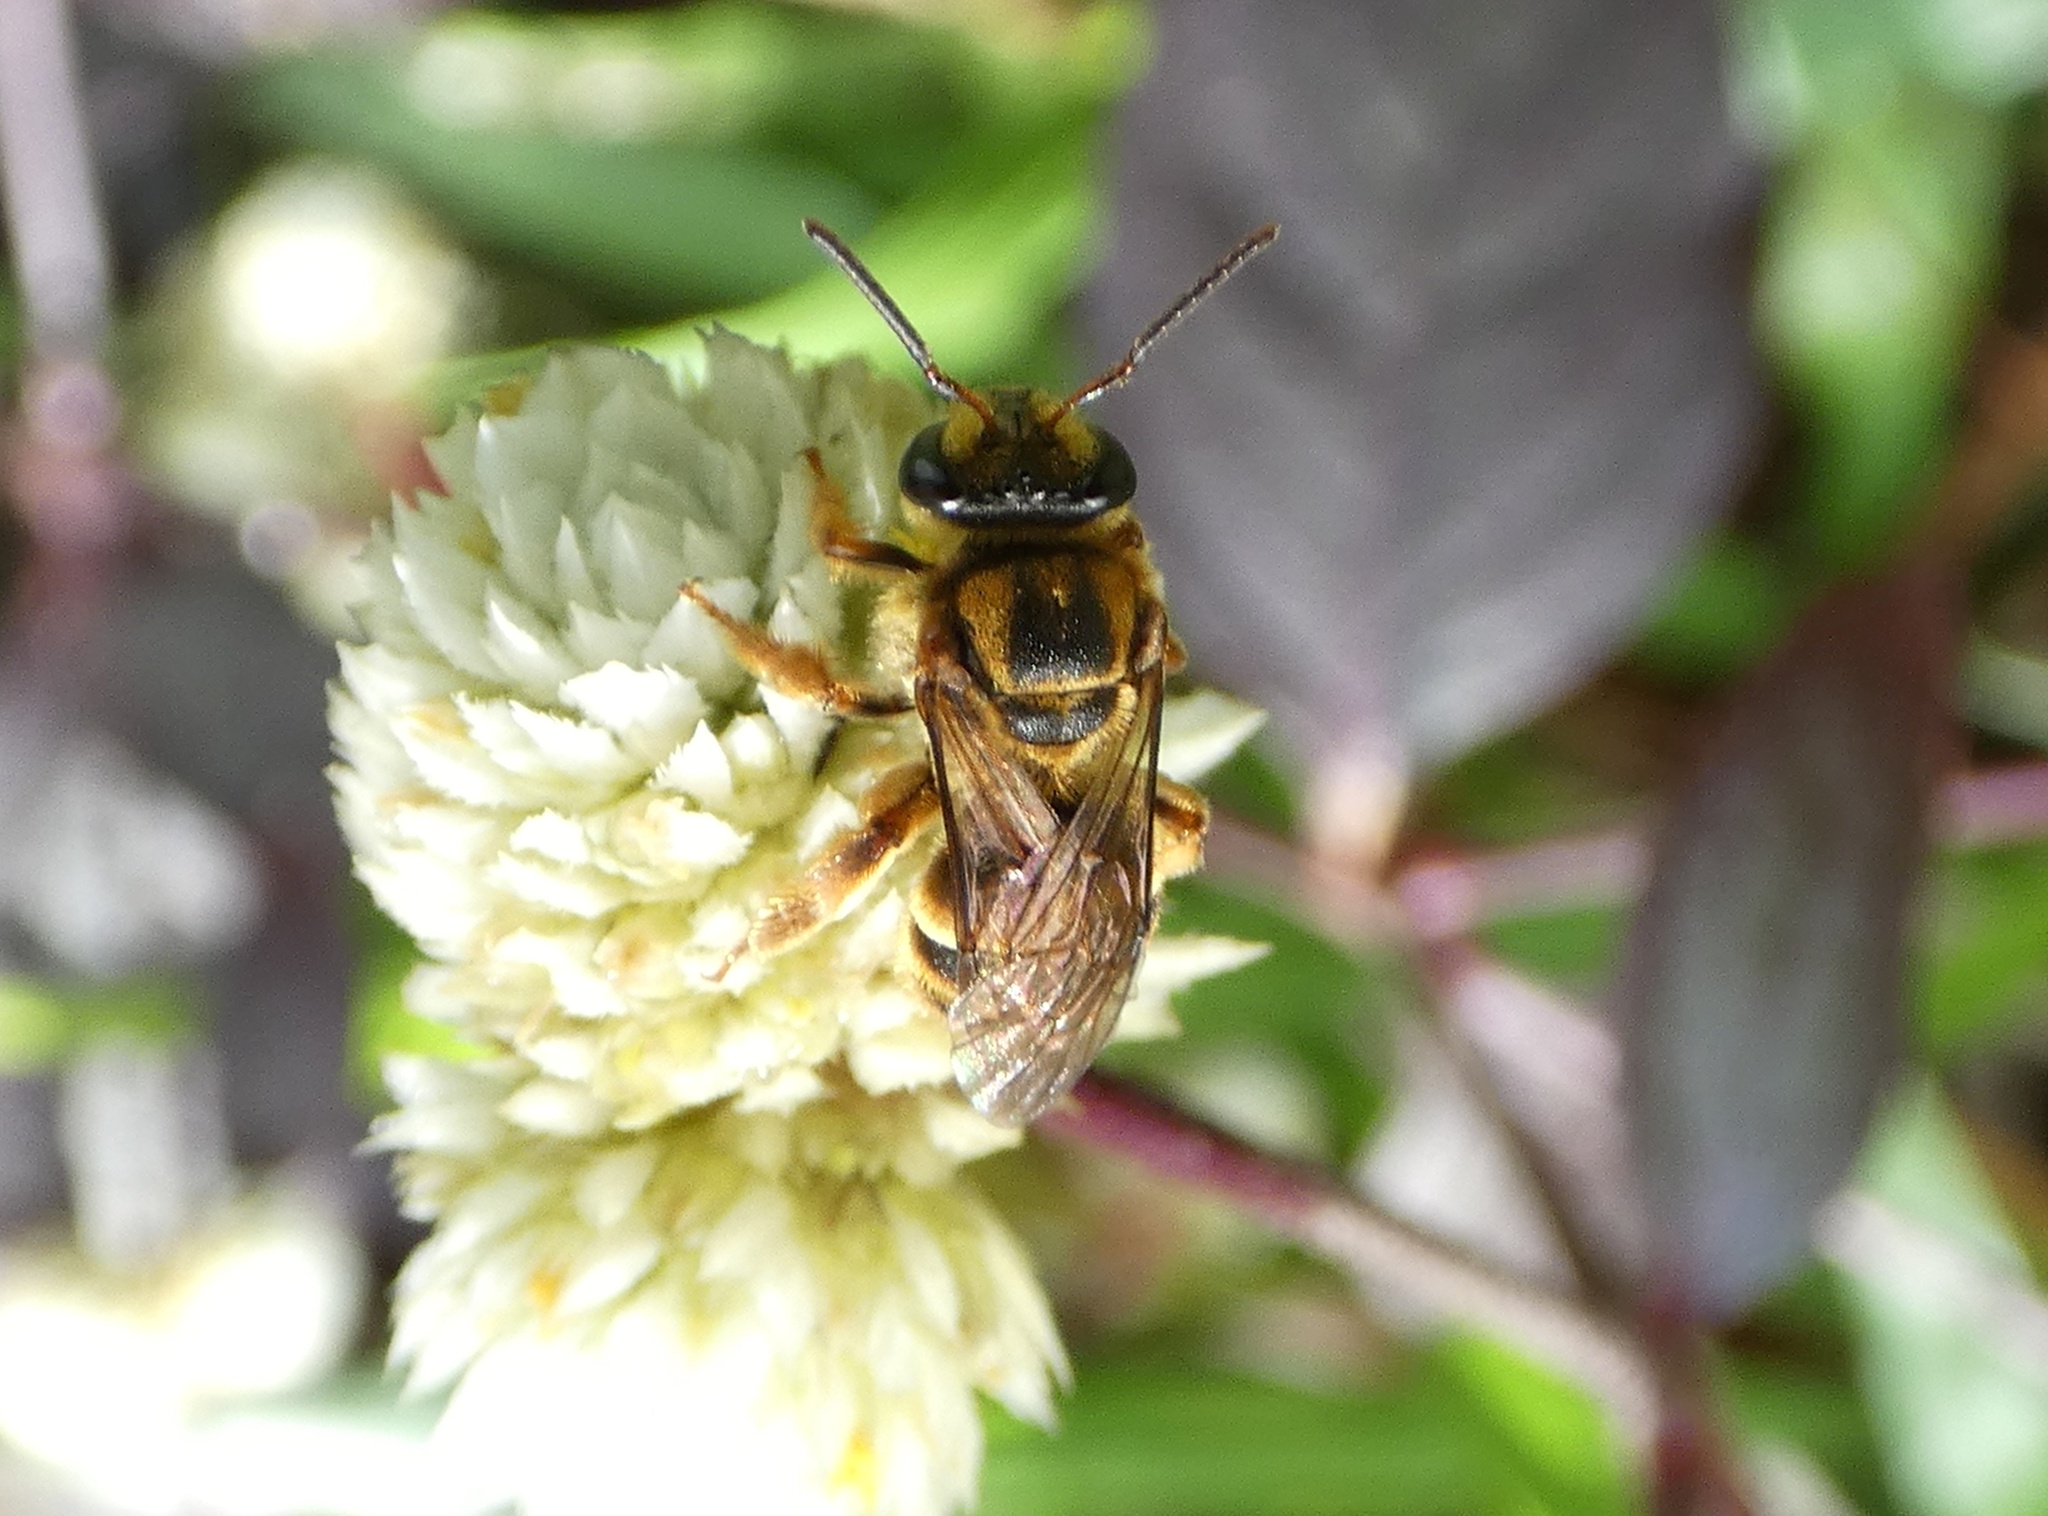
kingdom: Animalia
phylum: Arthropoda
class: Insecta
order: Hymenoptera
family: Halictidae
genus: Mellitidia
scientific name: Mellitidia tomentifera
